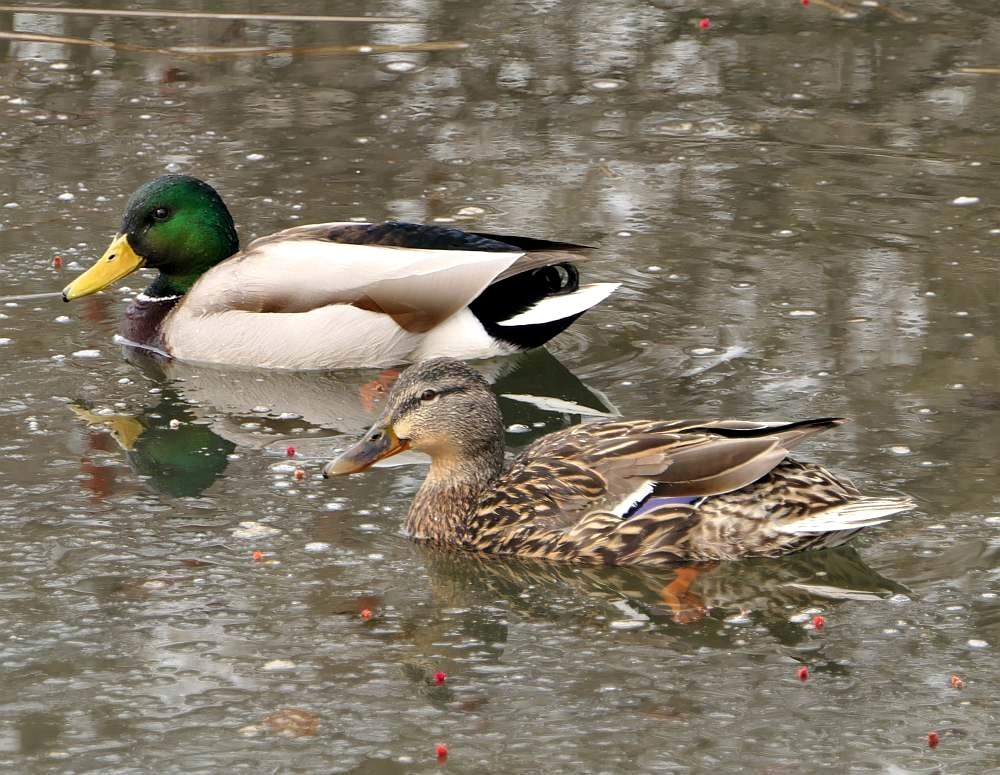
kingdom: Animalia
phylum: Chordata
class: Aves
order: Anseriformes
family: Anatidae
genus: Anas
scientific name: Anas platyrhynchos
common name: Mallard
